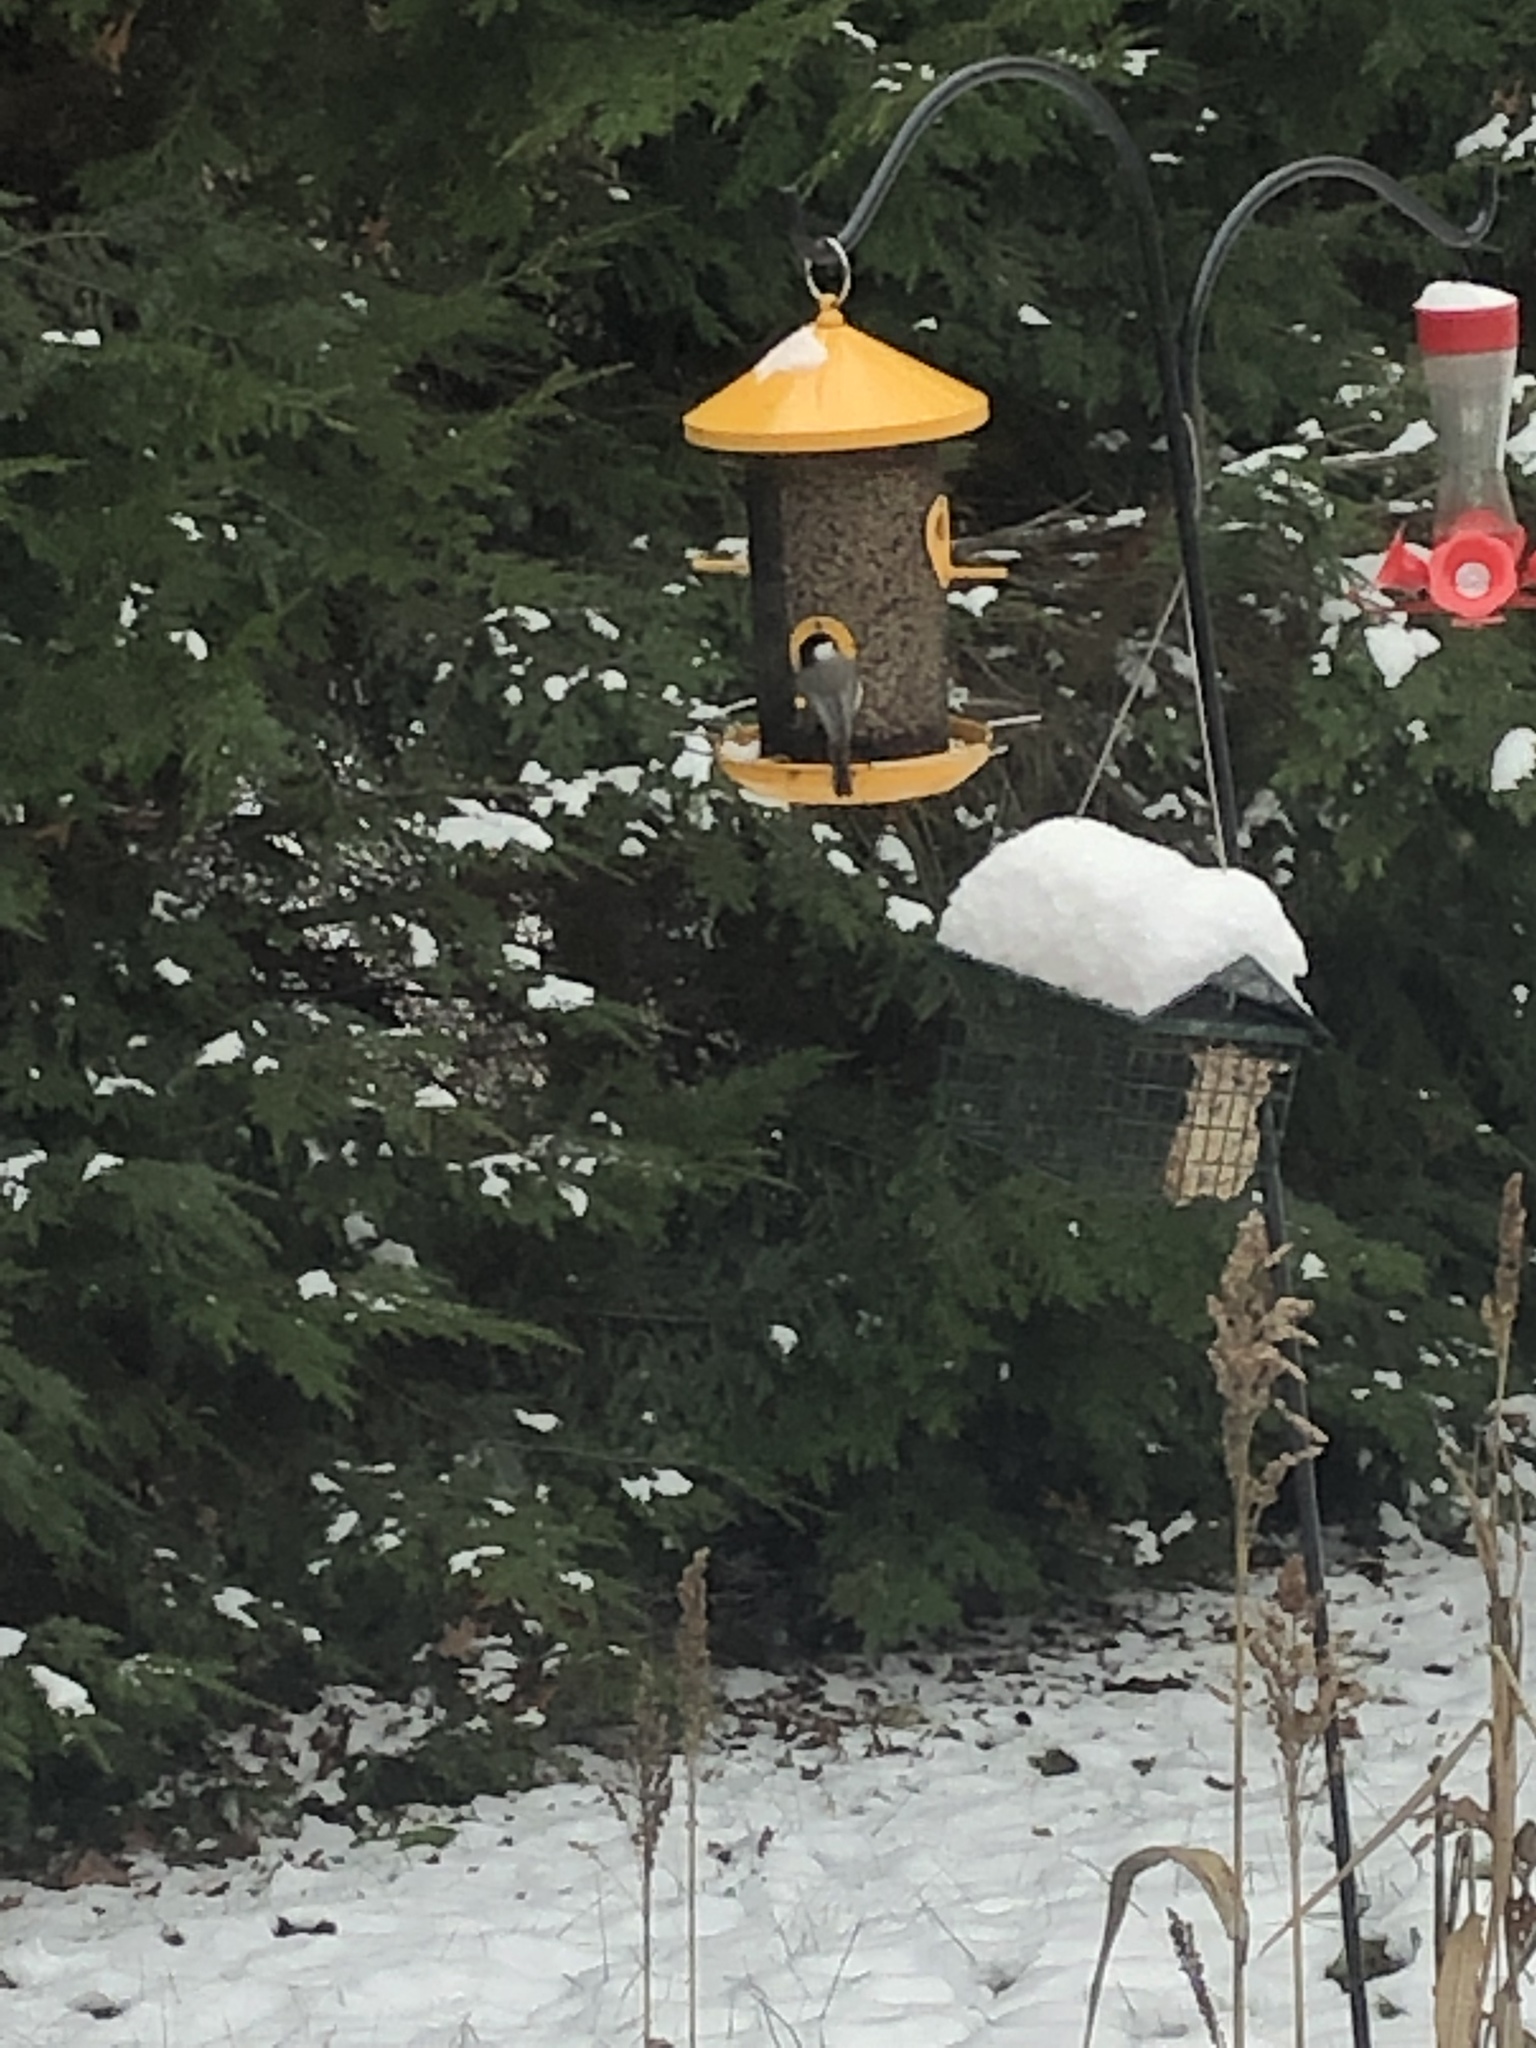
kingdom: Animalia
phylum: Chordata
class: Aves
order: Passeriformes
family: Paridae
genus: Poecile
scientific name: Poecile
